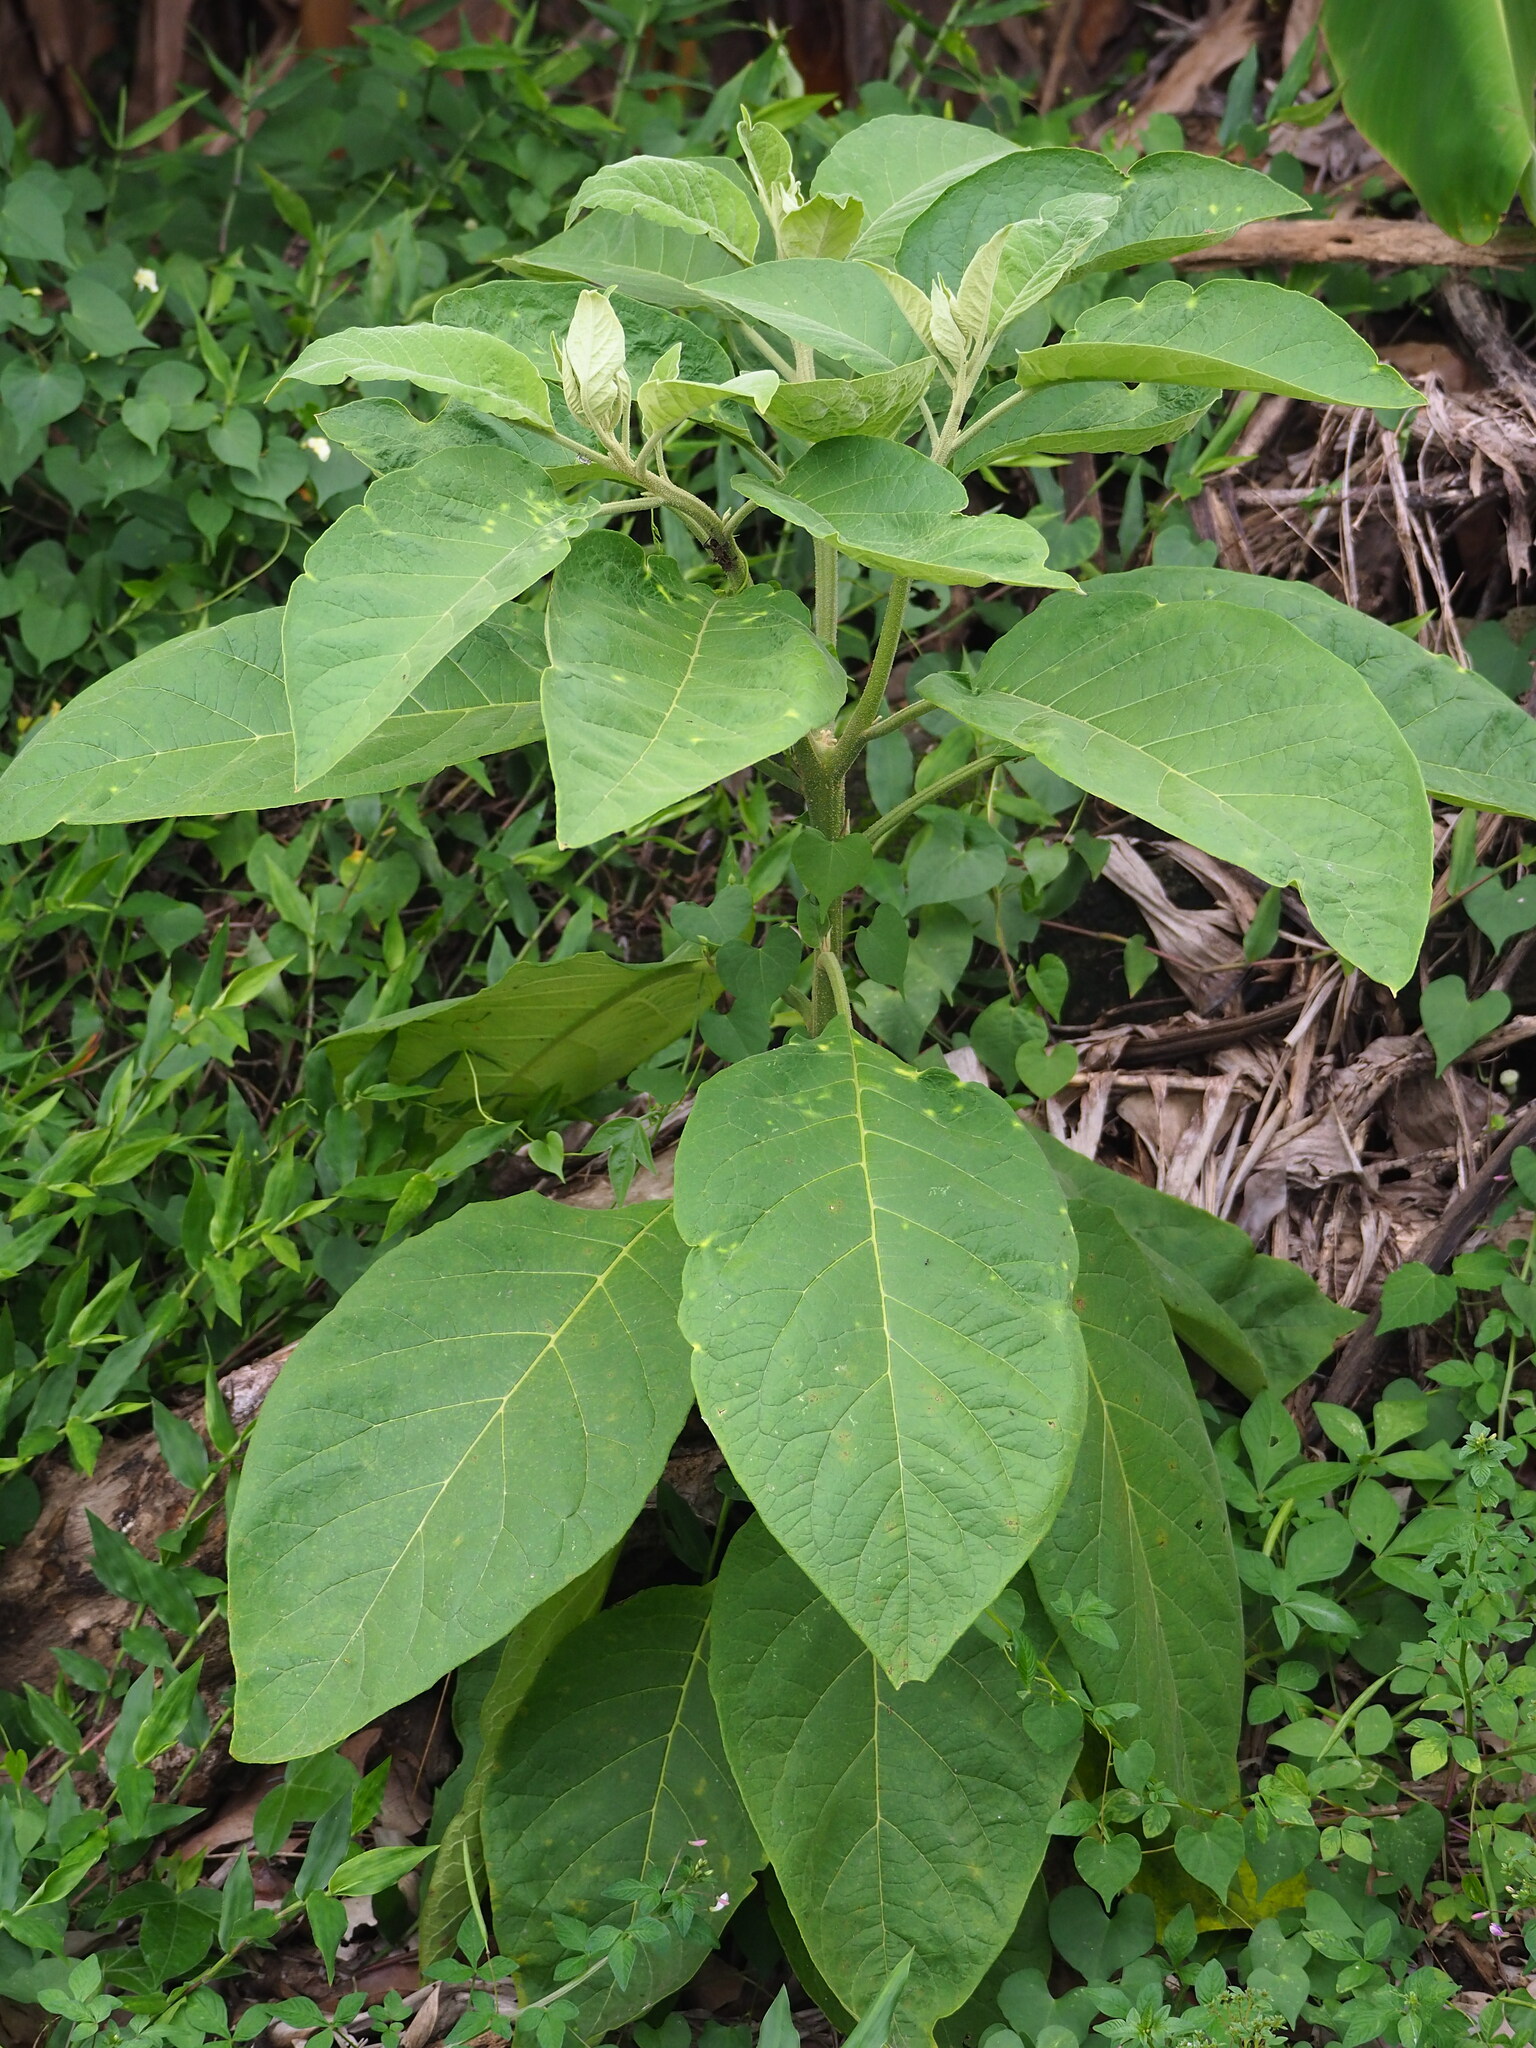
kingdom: Plantae
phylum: Tracheophyta
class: Magnoliopsida
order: Solanales
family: Solanaceae
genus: Solanum
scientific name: Solanum erianthum
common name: Tobacco-tree
